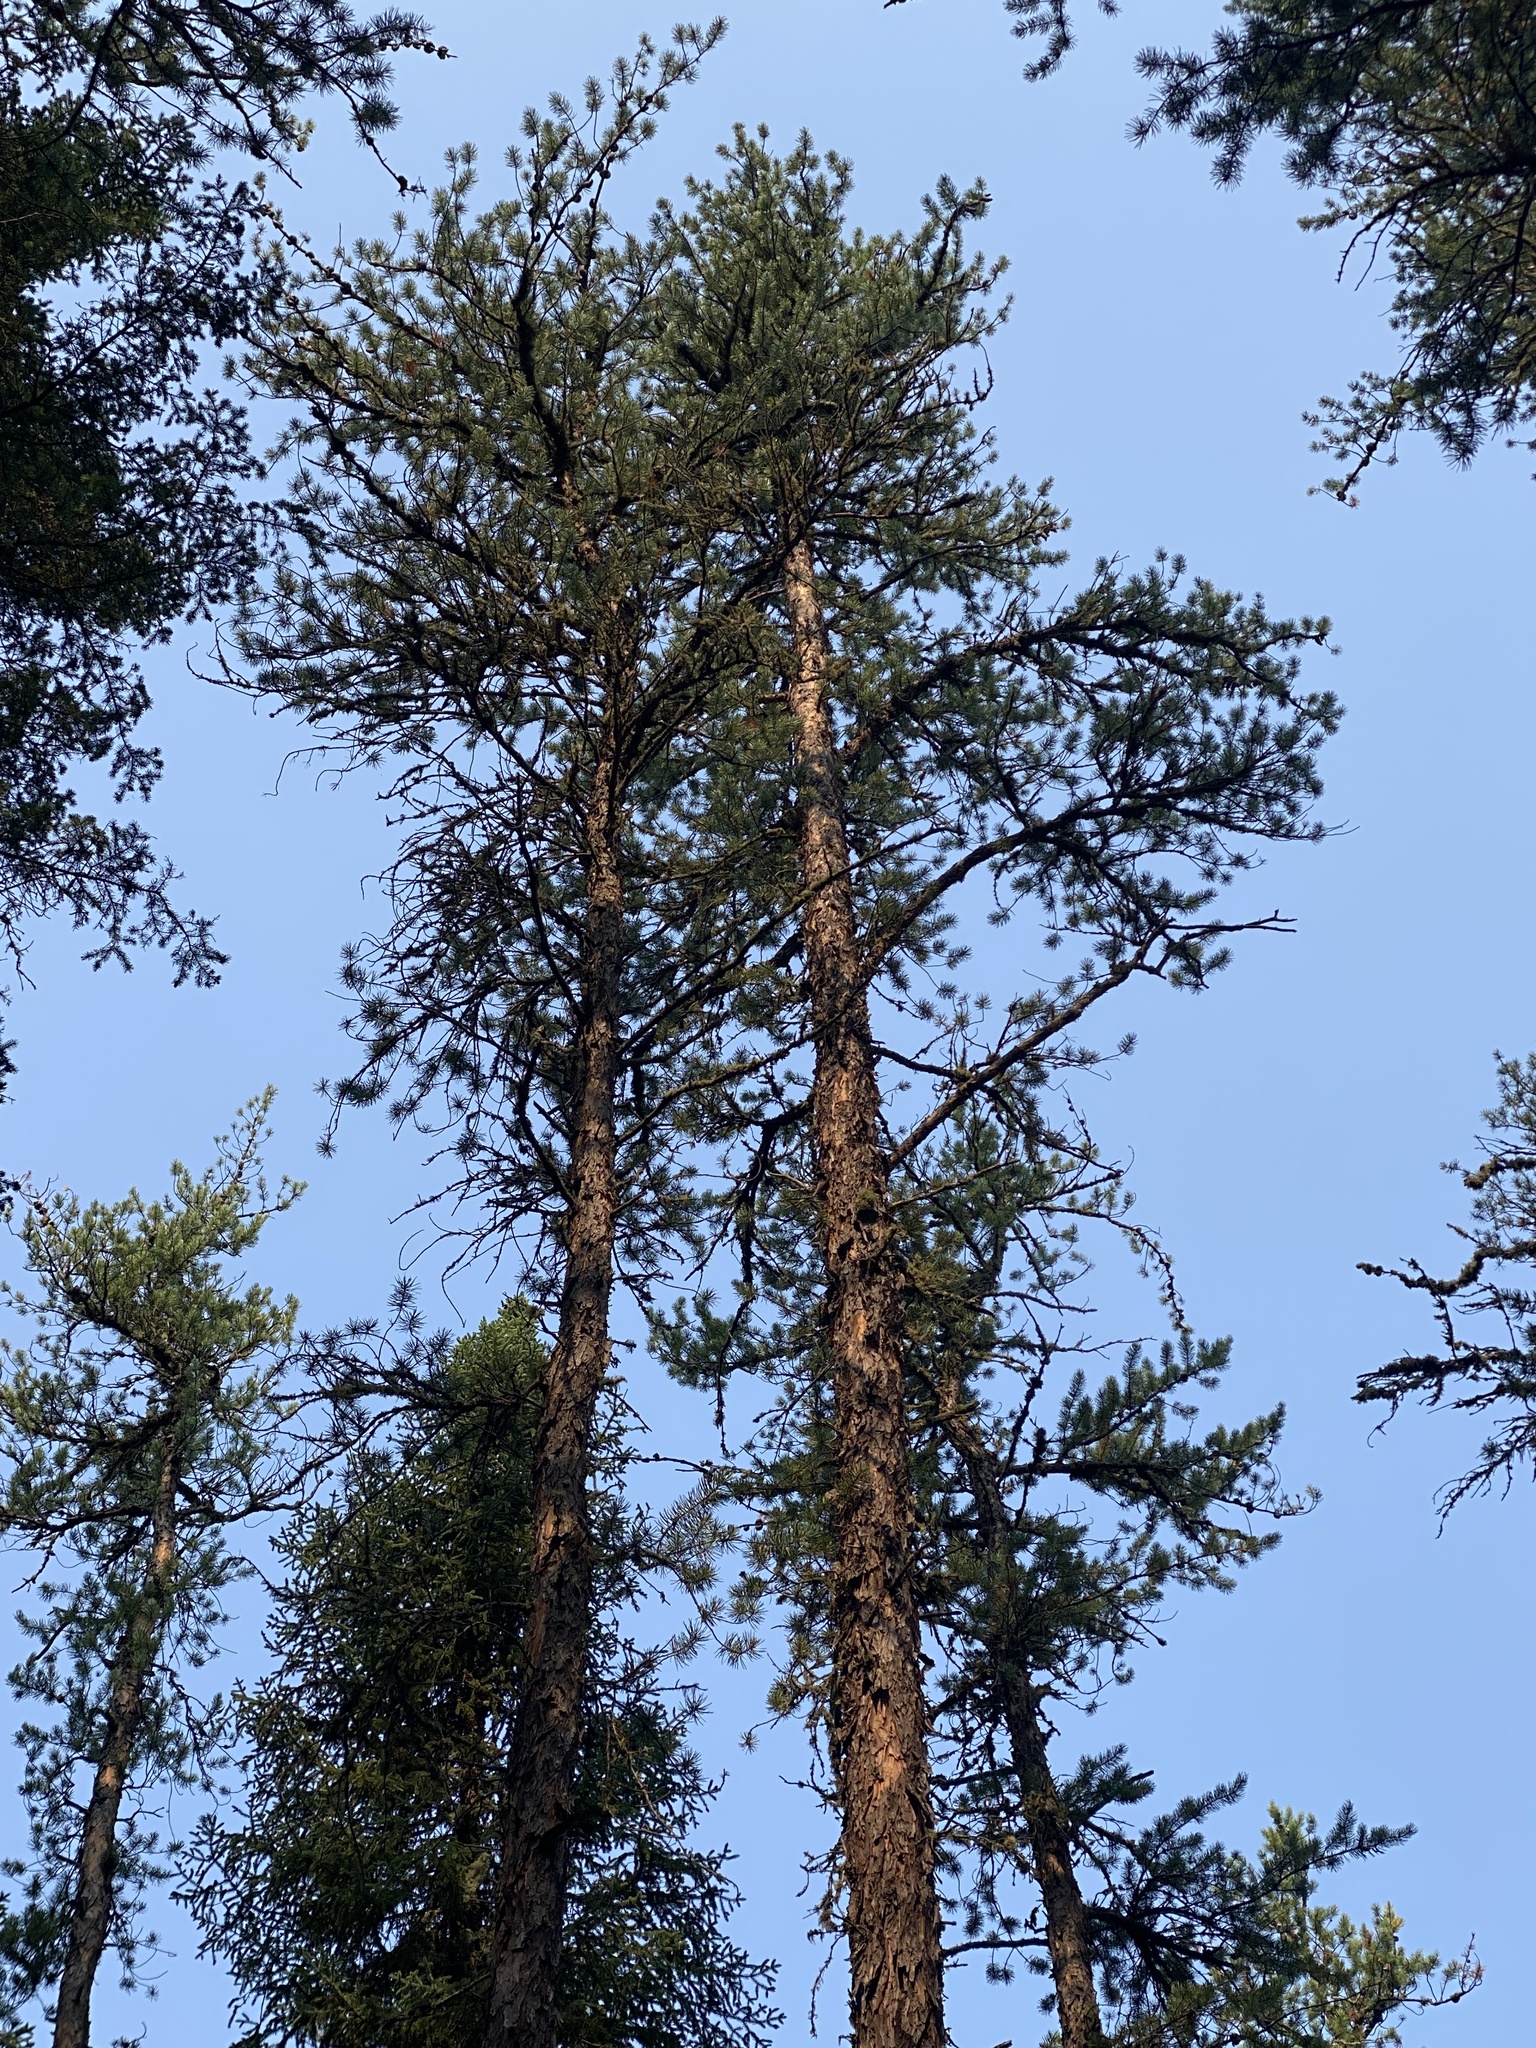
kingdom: Plantae
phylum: Tracheophyta
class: Pinopsida
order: Pinales
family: Pinaceae
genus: Pinus
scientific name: Pinus banksiana
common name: Jack pine
